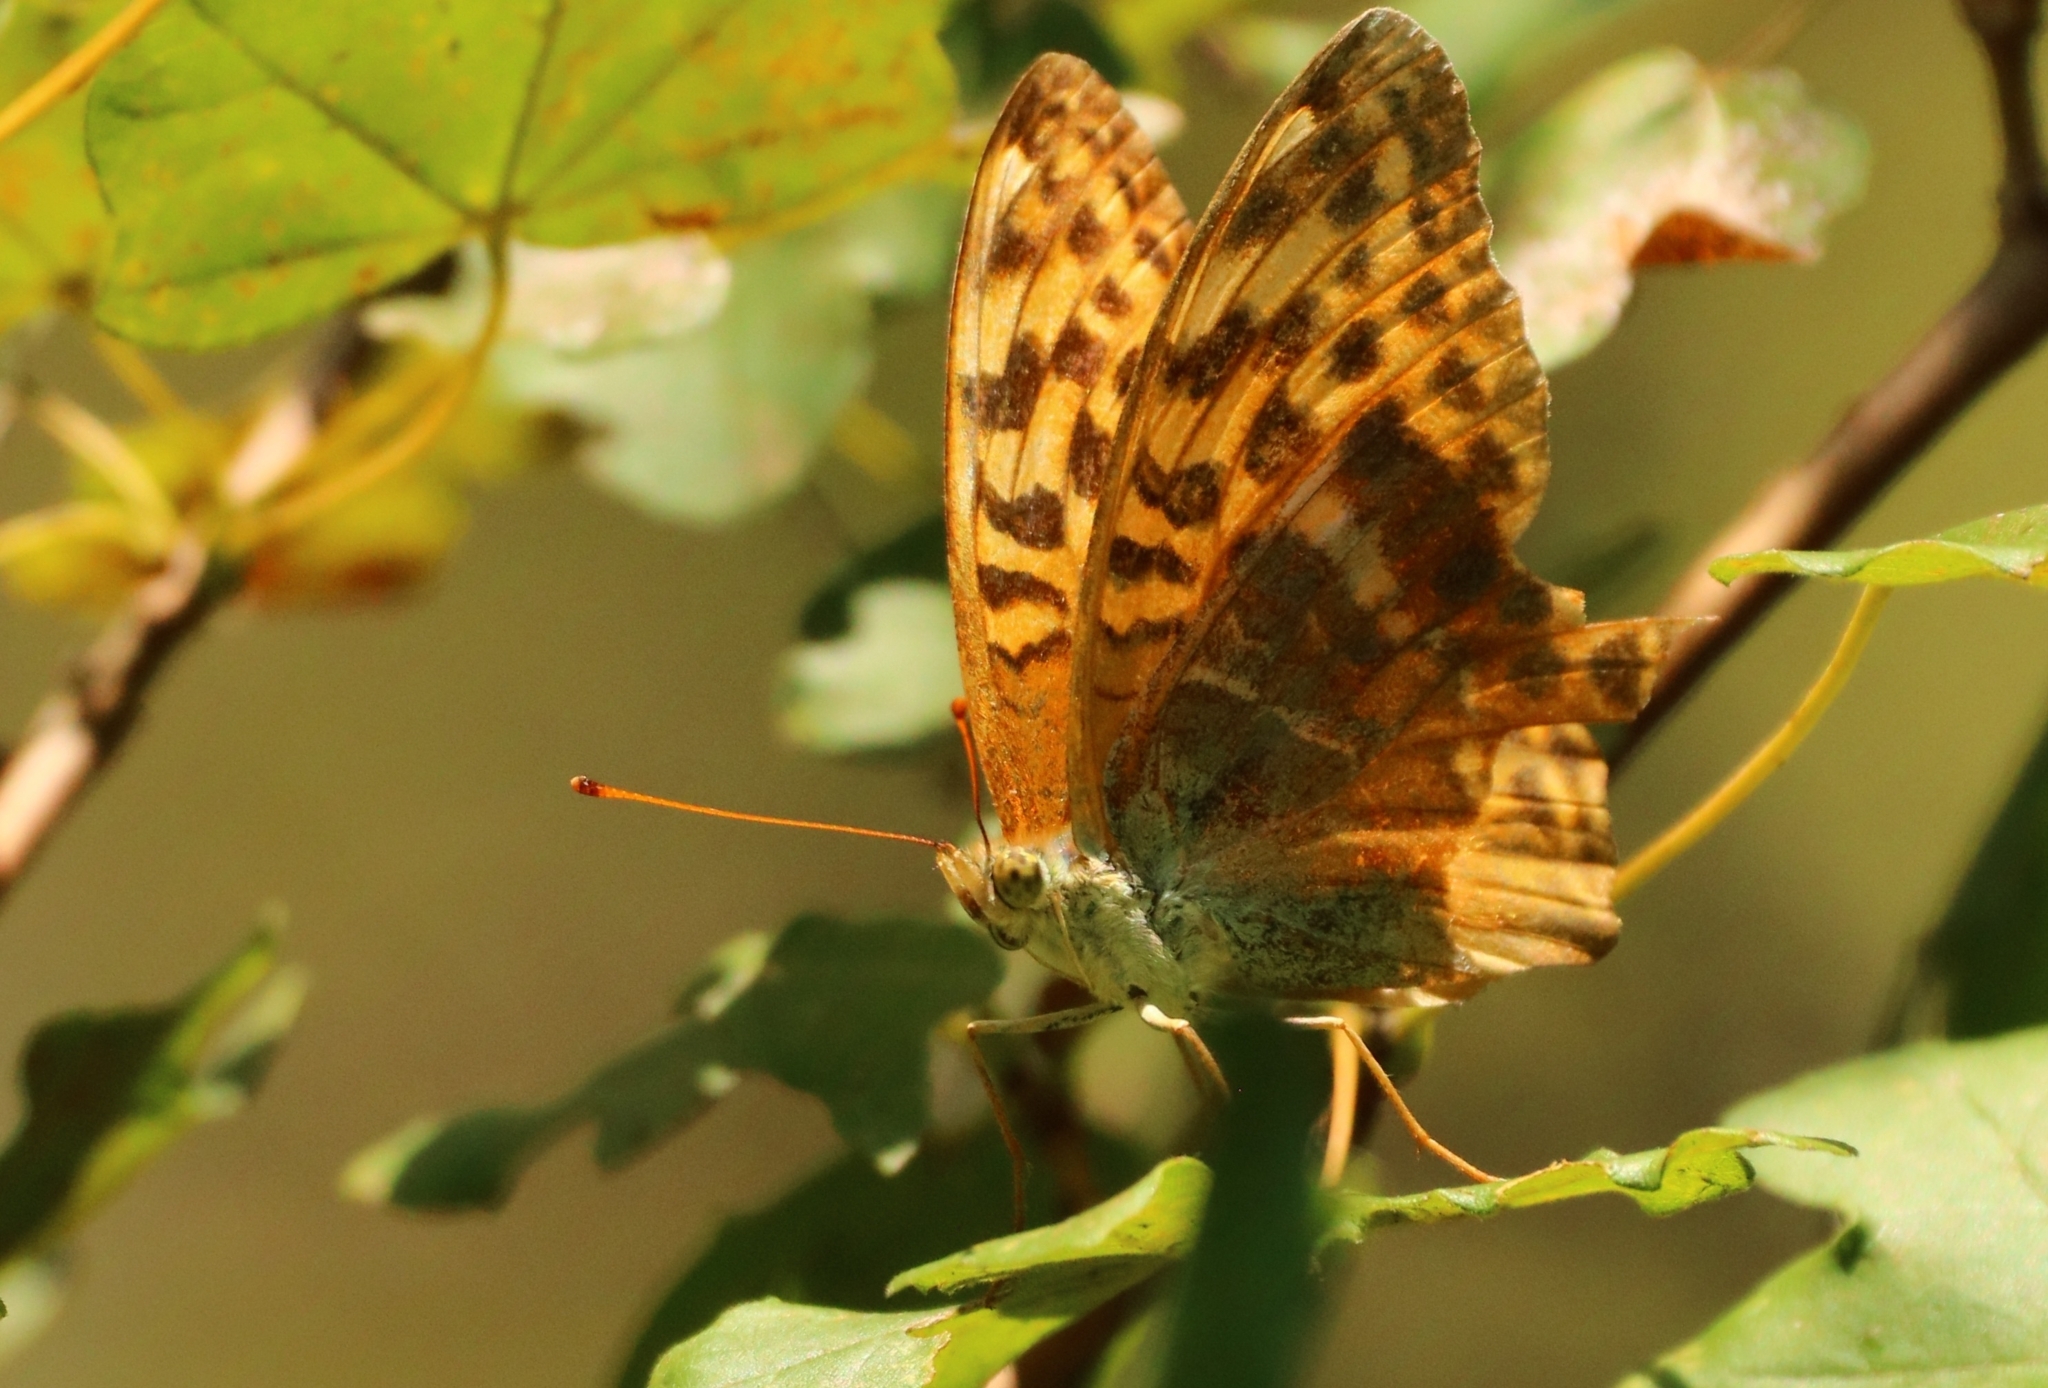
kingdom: Animalia
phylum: Arthropoda
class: Insecta
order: Lepidoptera
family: Nymphalidae
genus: Argynnis
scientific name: Argynnis paphia
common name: Silver-washed fritillary
